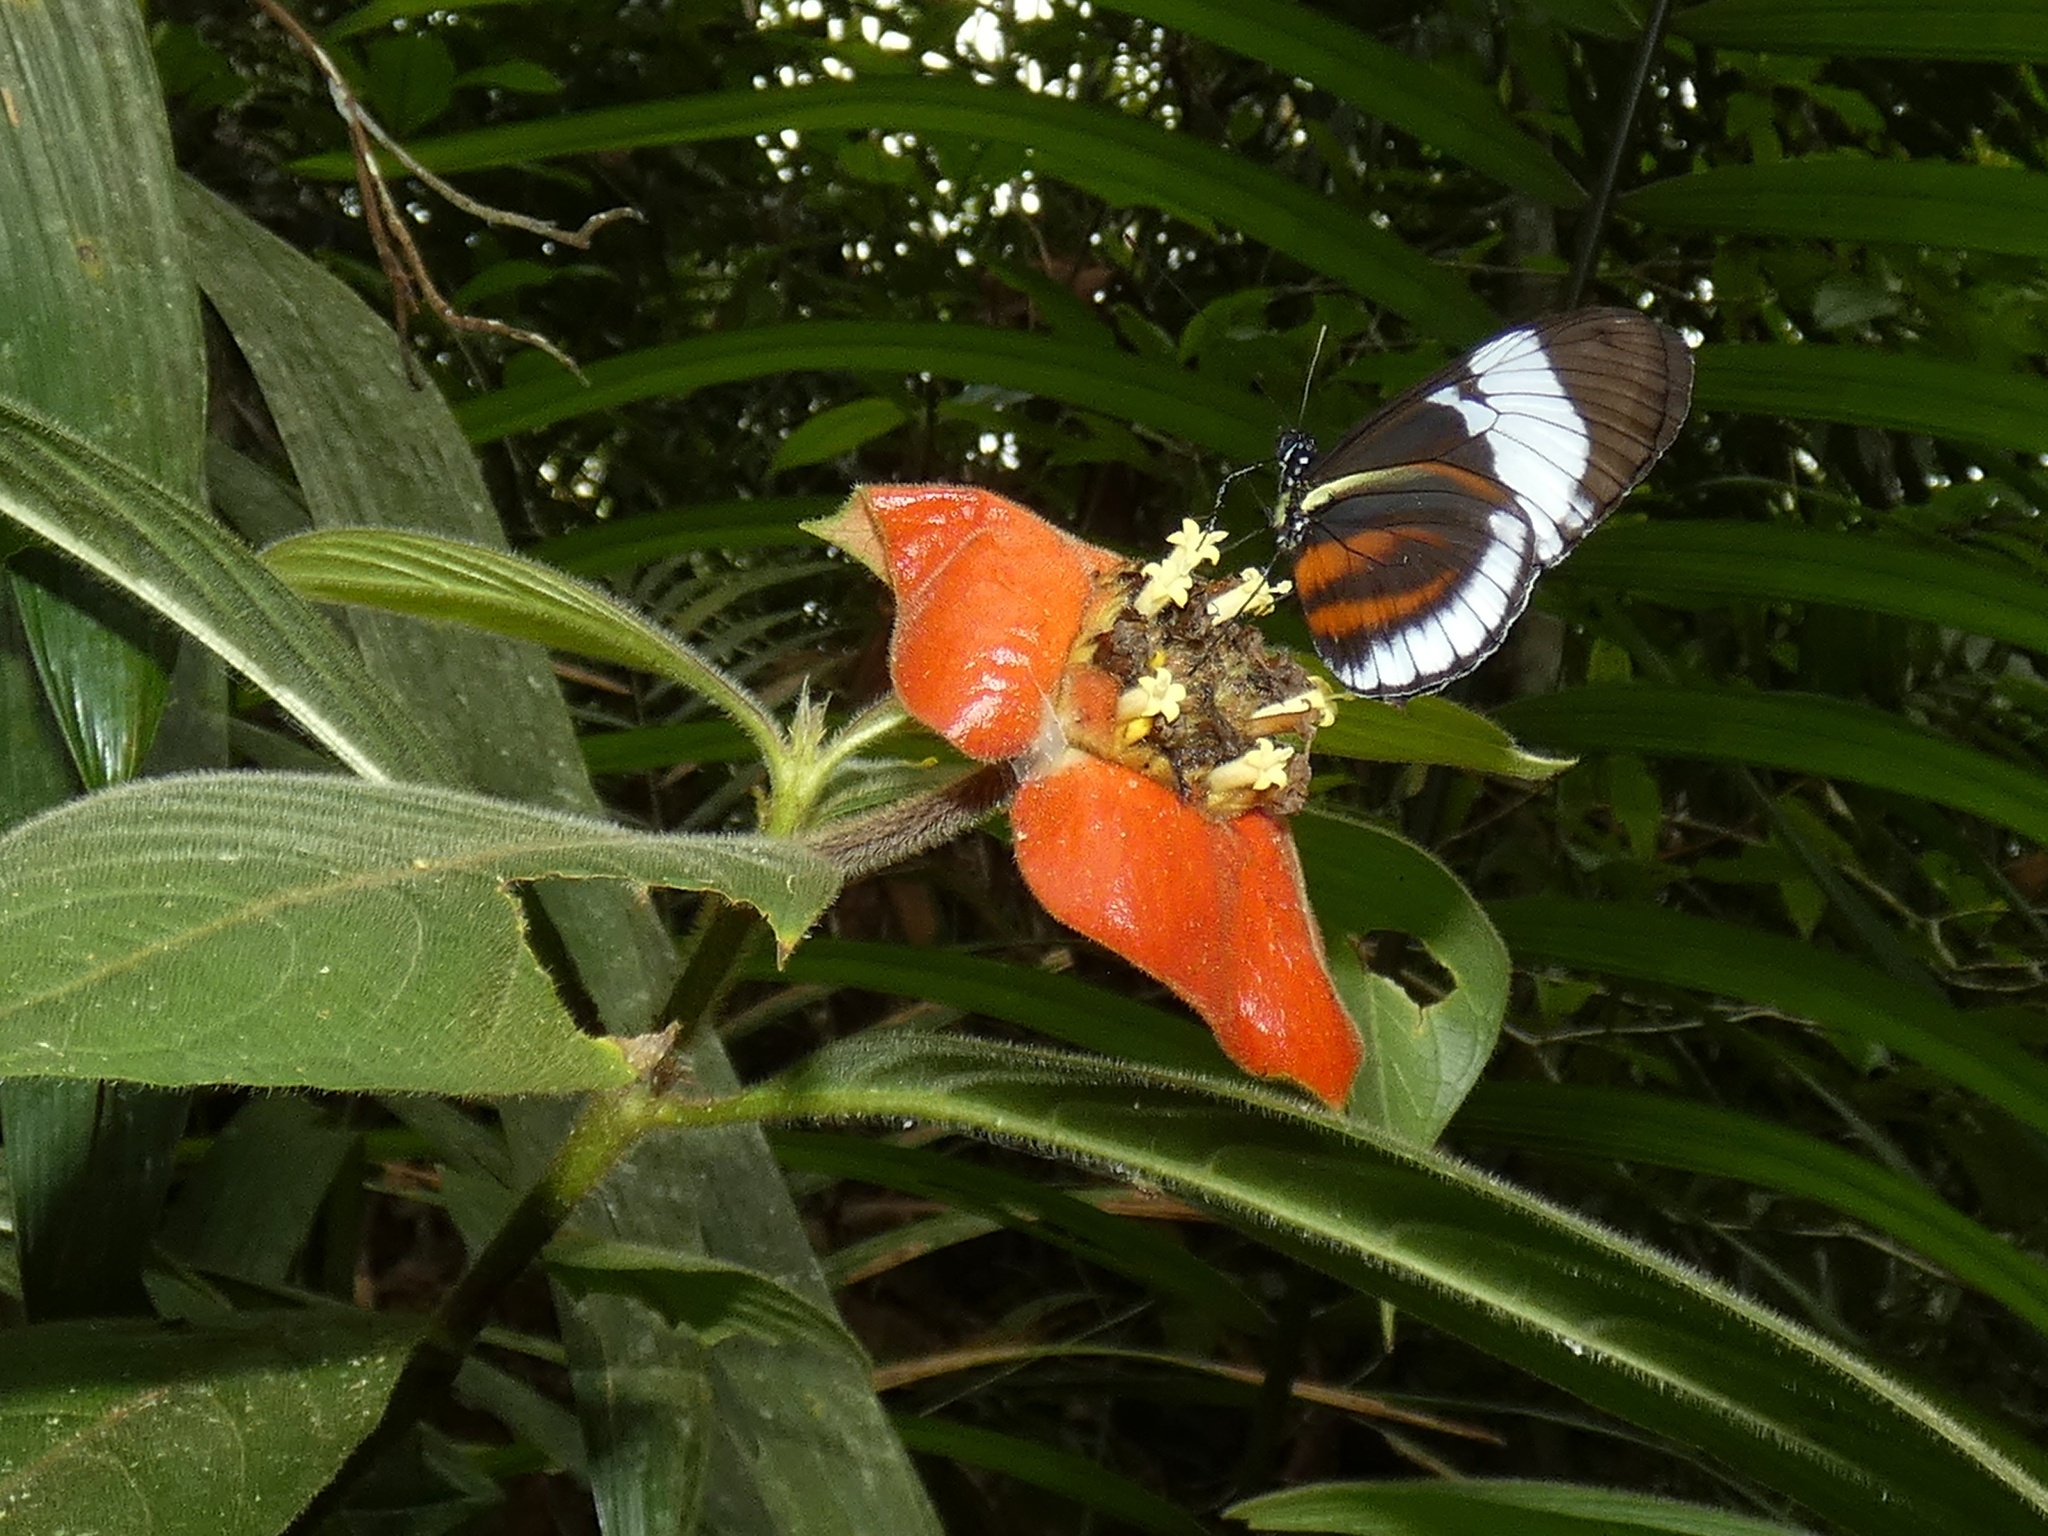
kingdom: Animalia
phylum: Arthropoda
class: Insecta
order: Lepidoptera
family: Nymphalidae
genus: Heliconius
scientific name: Heliconius cydno
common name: Cydno longwing
